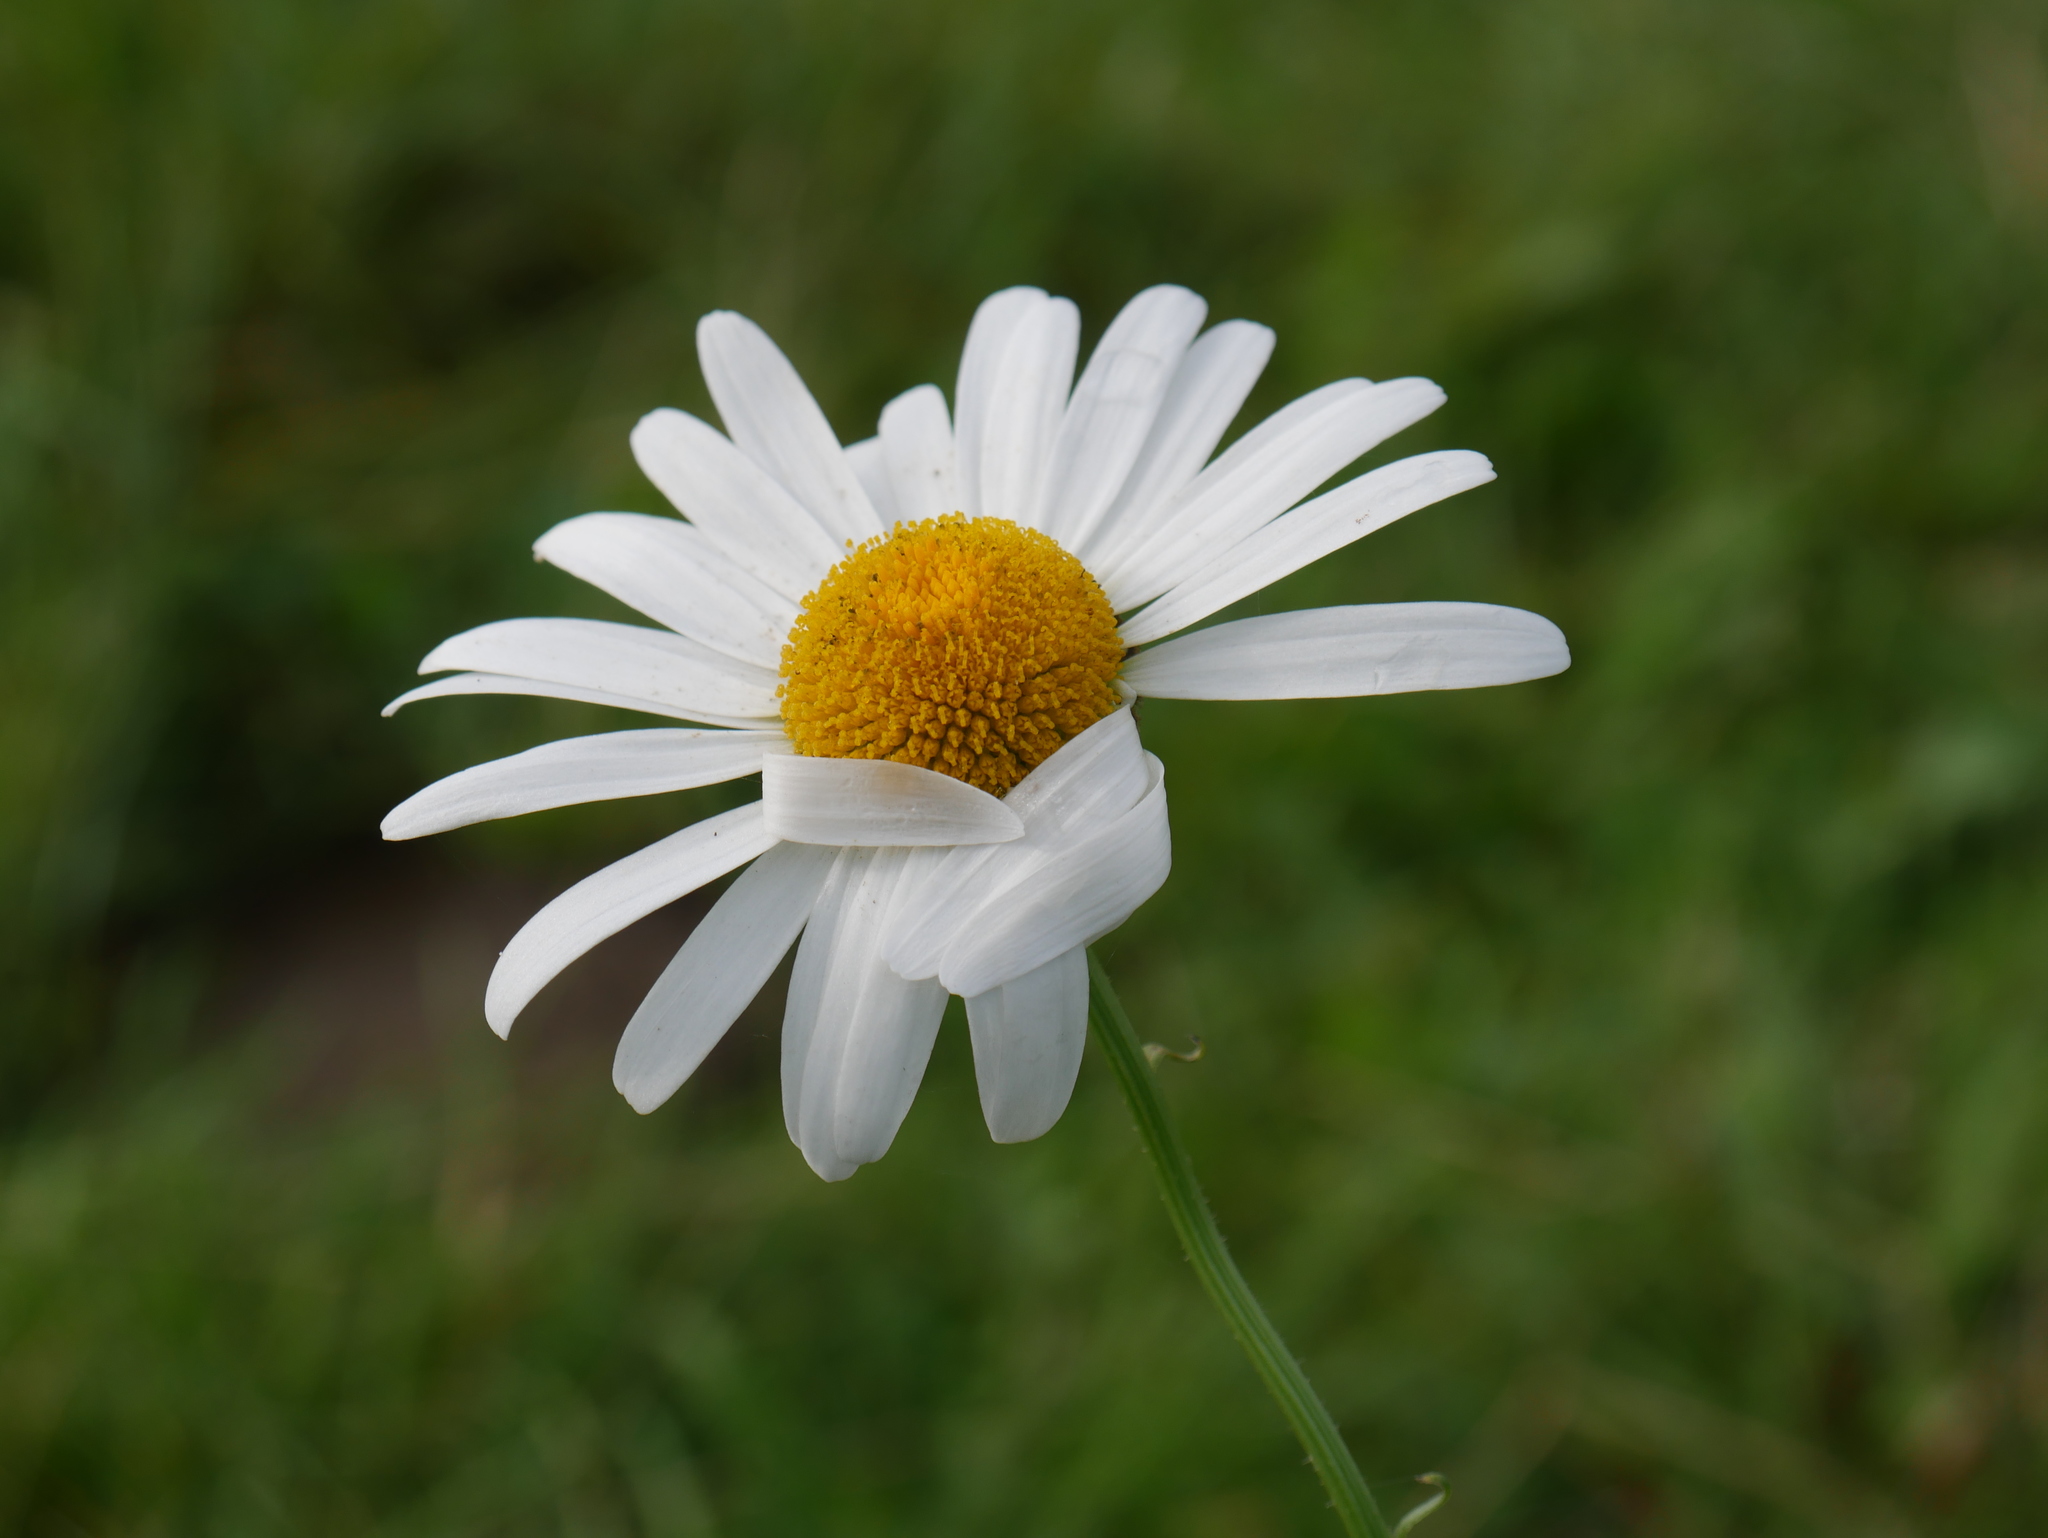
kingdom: Plantae
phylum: Tracheophyta
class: Magnoliopsida
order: Asterales
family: Asteraceae
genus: Leucanthemum
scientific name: Leucanthemum vulgare
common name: Oxeye daisy
